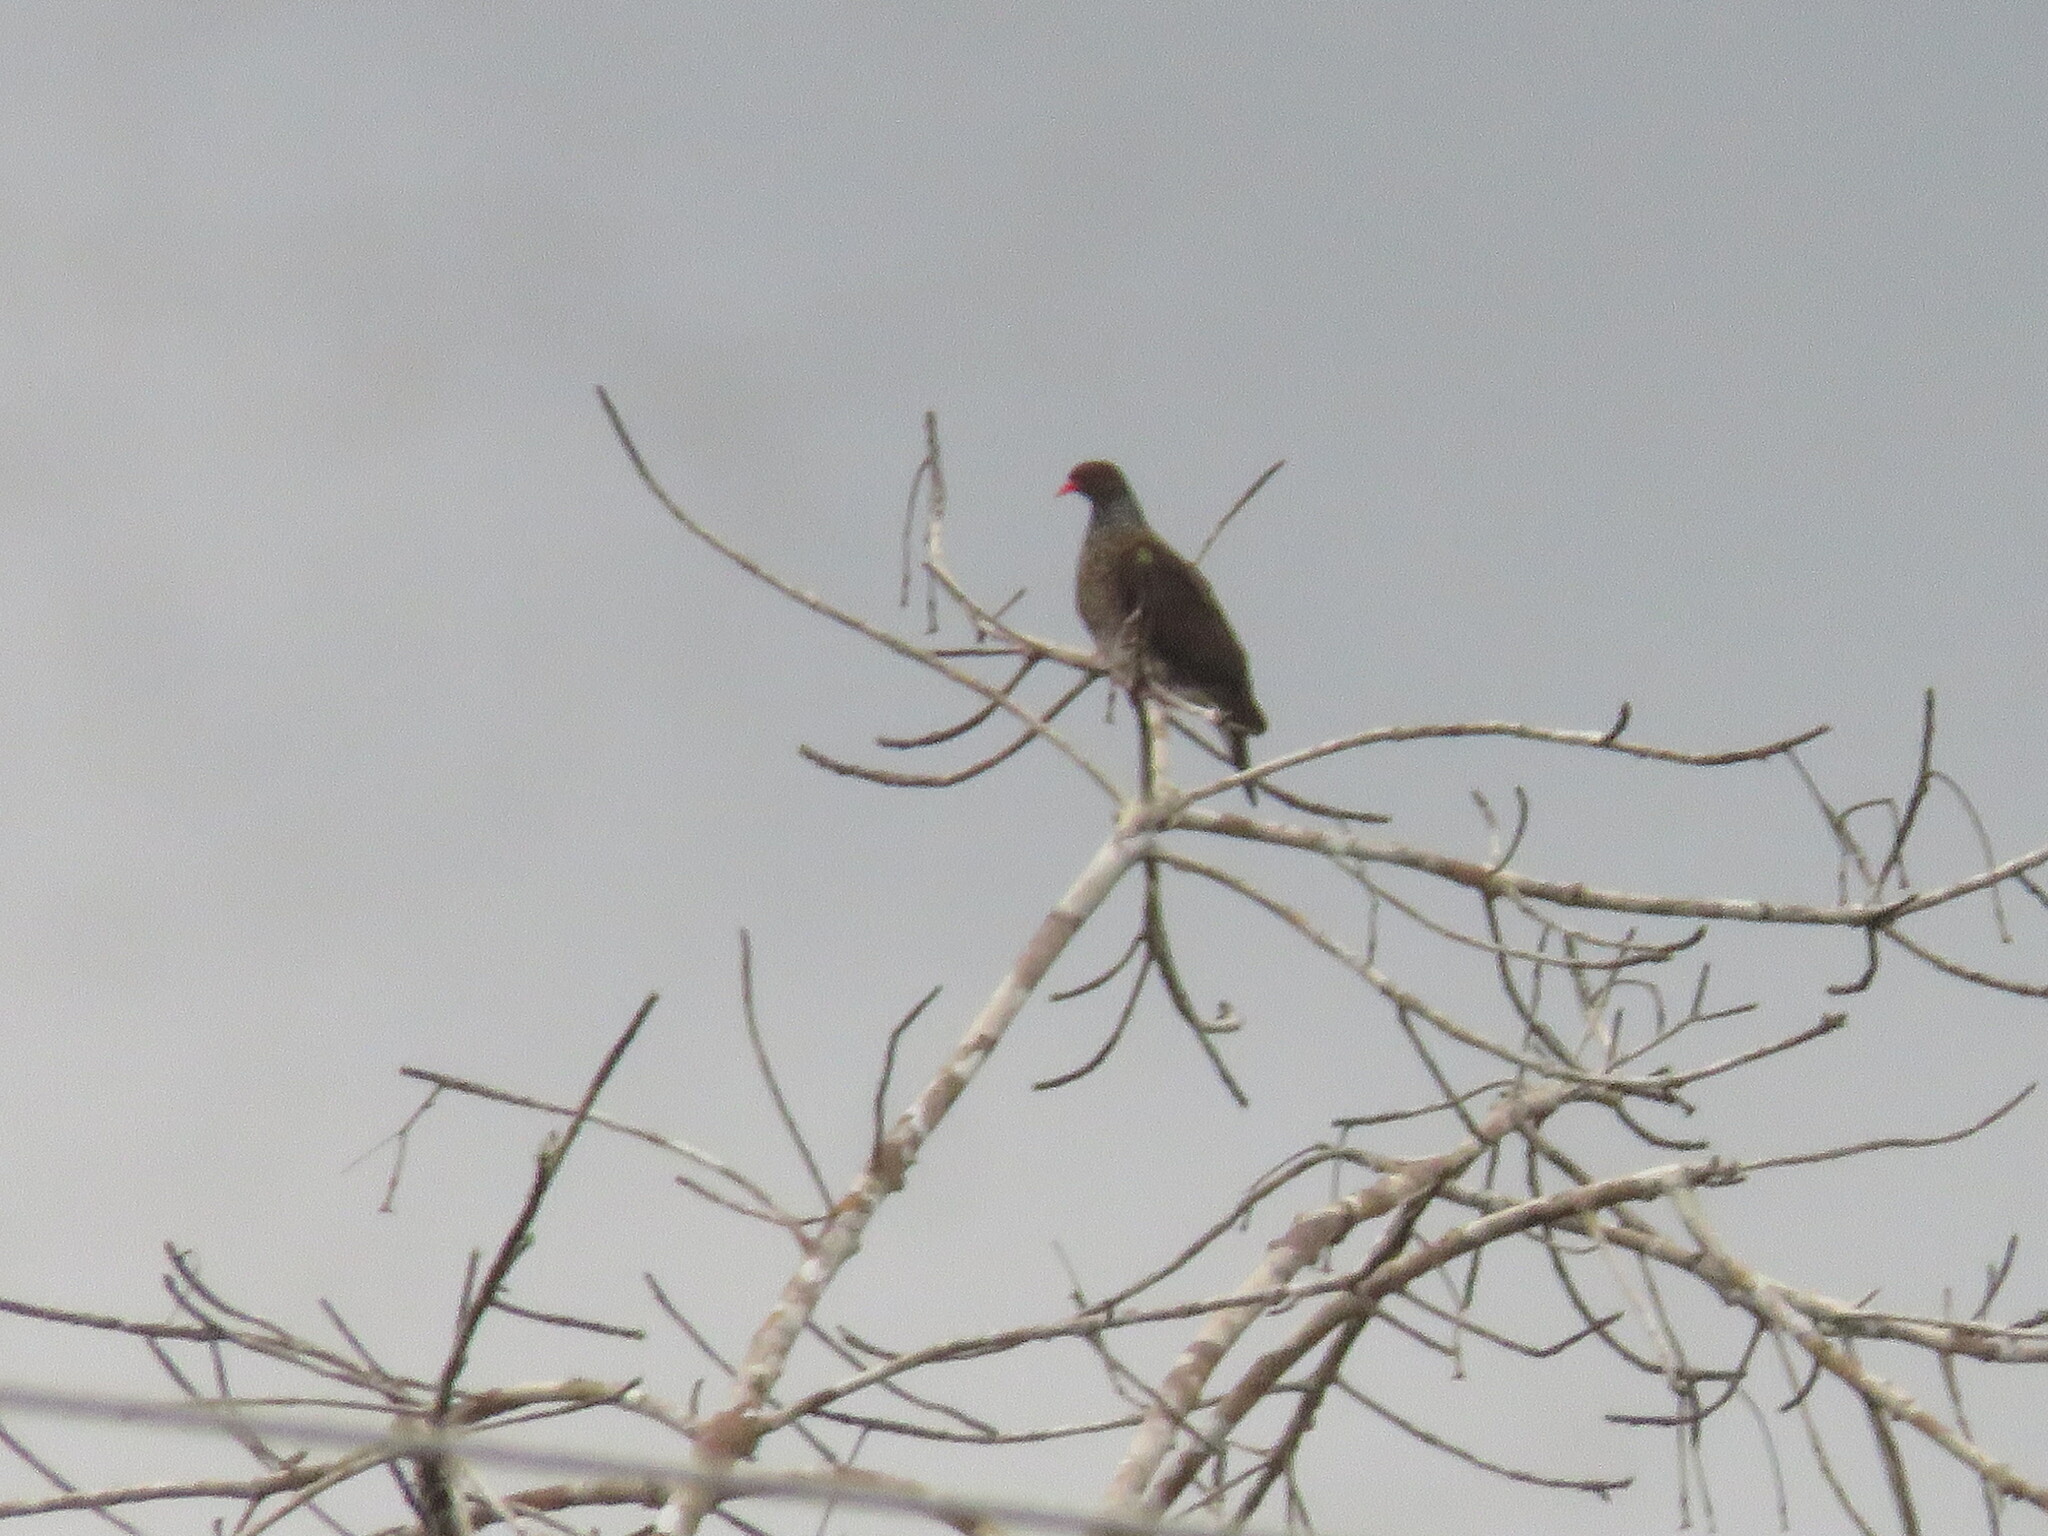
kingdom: Animalia
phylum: Chordata
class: Aves
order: Columbiformes
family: Columbidae
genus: Patagioenas
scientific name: Patagioenas speciosa
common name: Scaled pigeon
